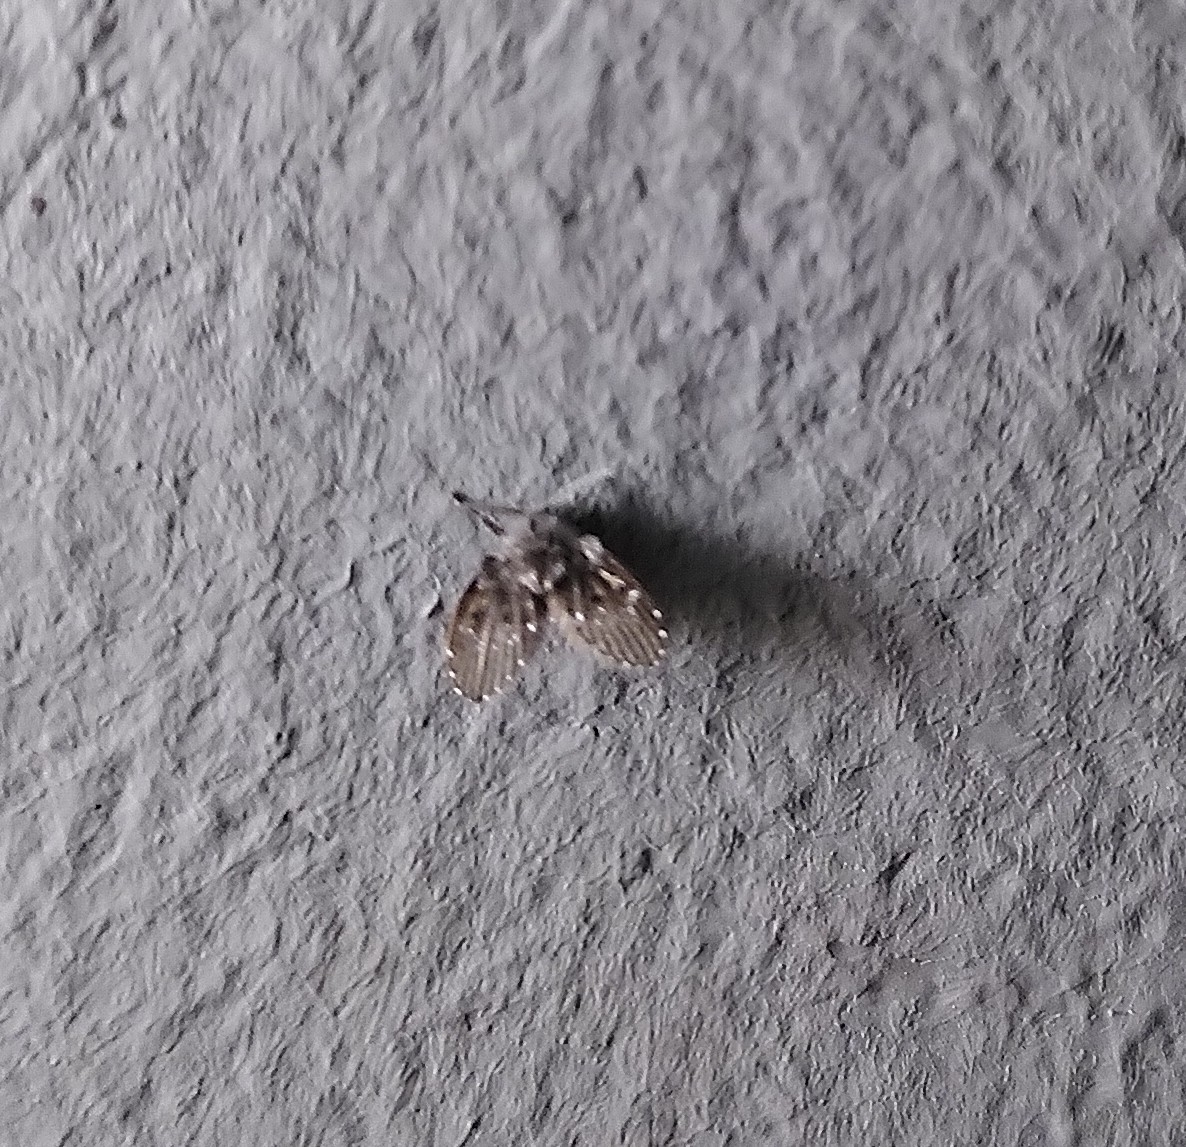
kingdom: Animalia
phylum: Arthropoda
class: Insecta
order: Diptera
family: Psychodidae
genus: Clogmia
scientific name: Clogmia albipunctatus
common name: White-spotted moth fly
